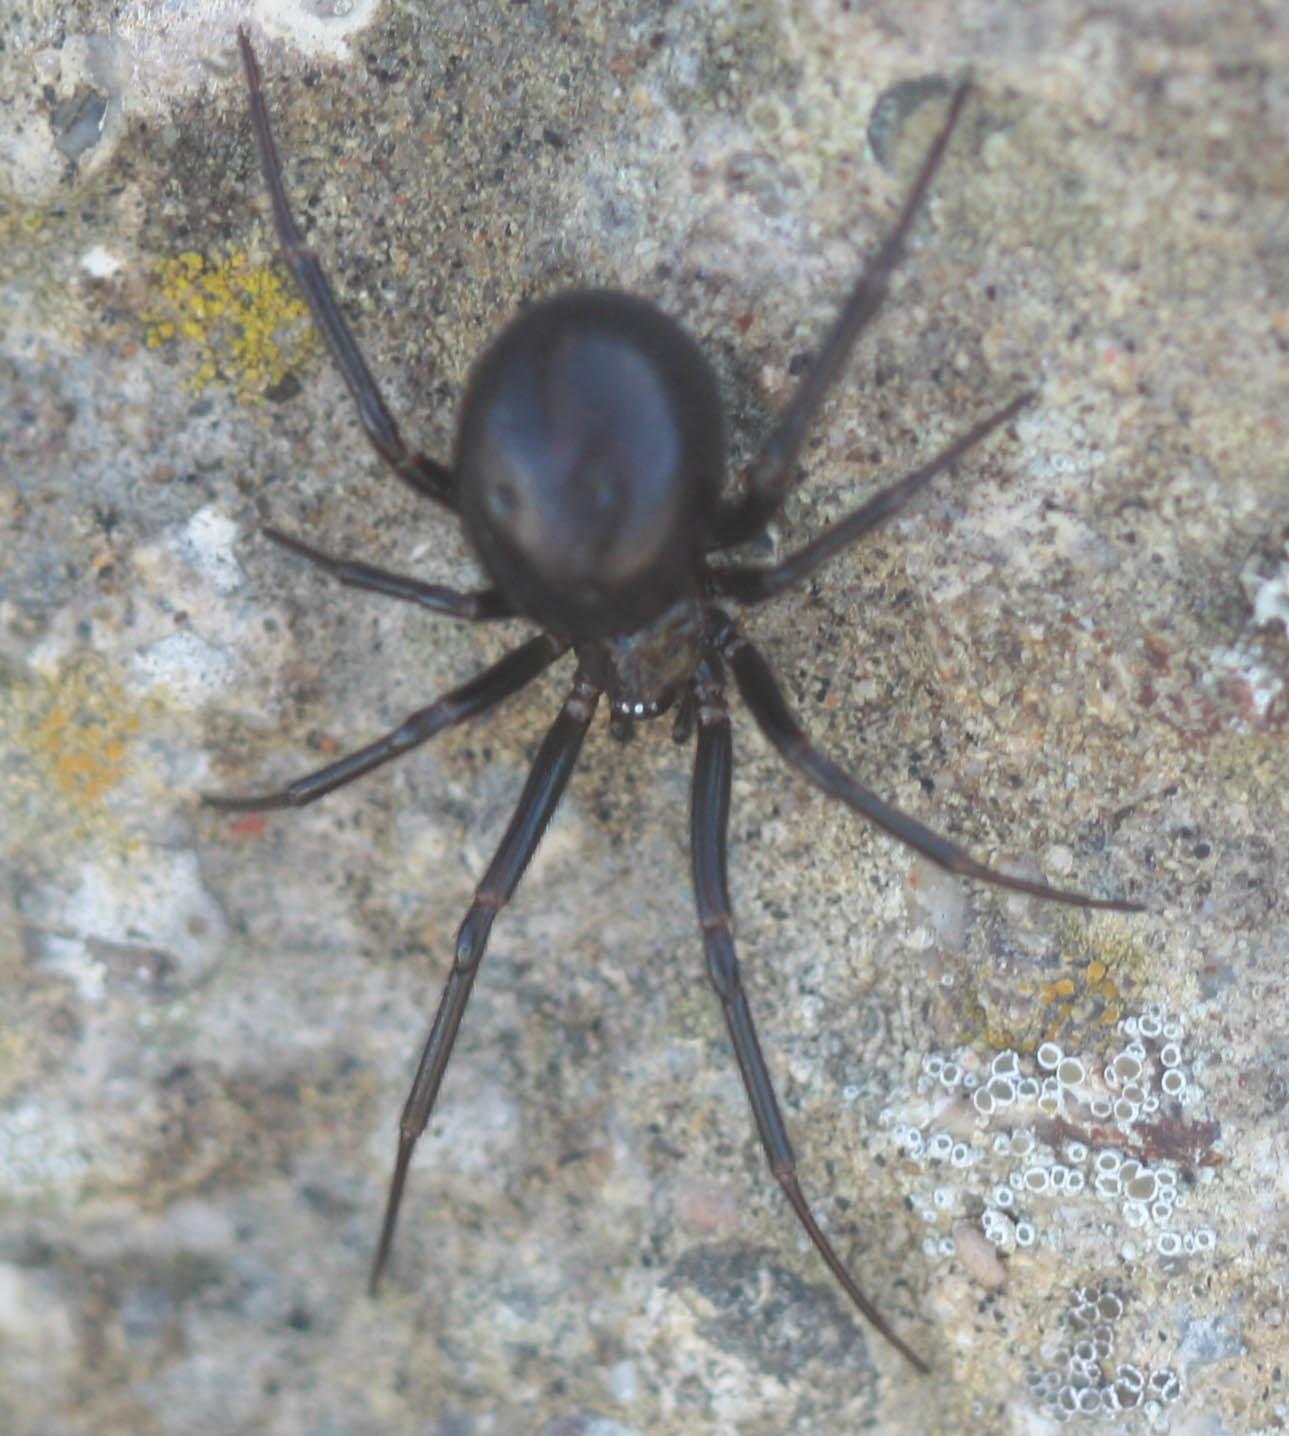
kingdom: Animalia
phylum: Arthropoda
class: Arachnida
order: Araneae
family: Theridiidae
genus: Steatoda
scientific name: Steatoda grossa
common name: False black widow
